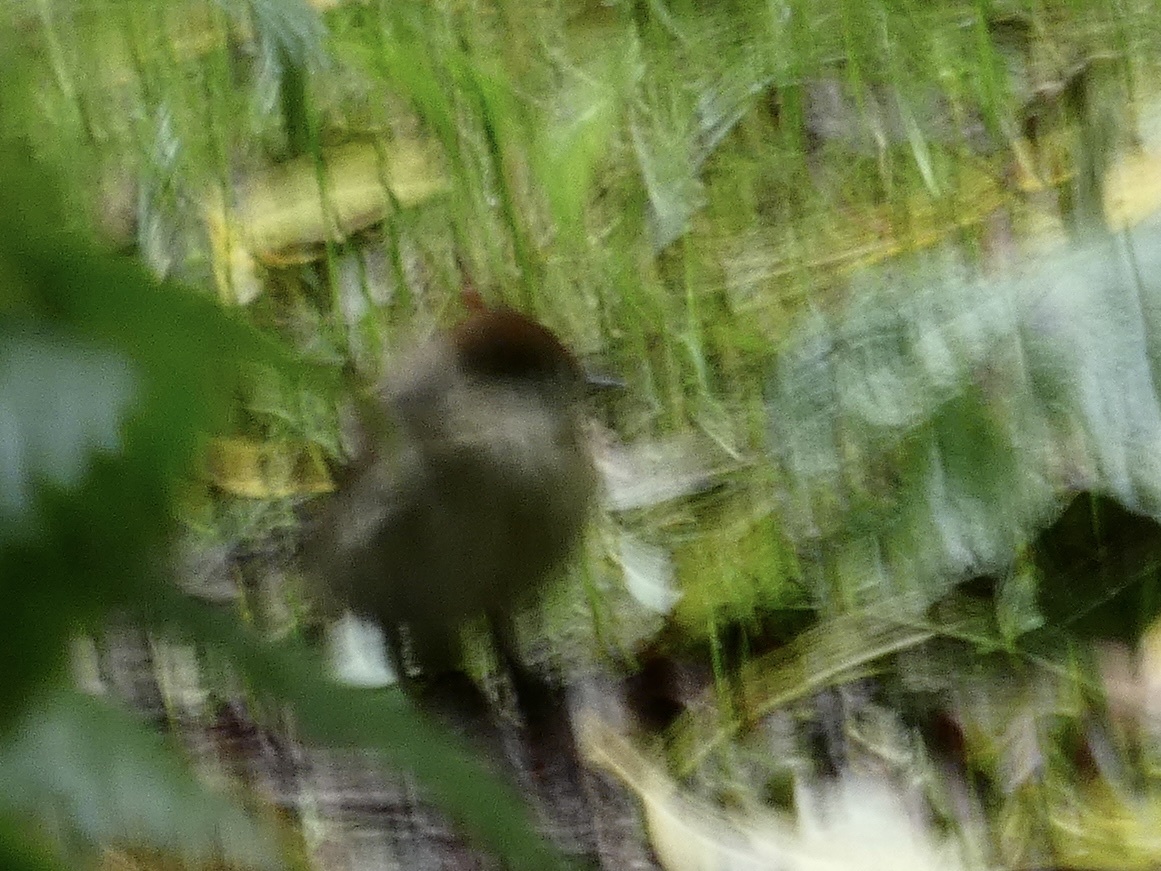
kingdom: Animalia
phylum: Chordata
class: Aves
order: Passeriformes
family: Sylviidae
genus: Sylvia
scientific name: Sylvia atricapilla
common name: Eurasian blackcap
